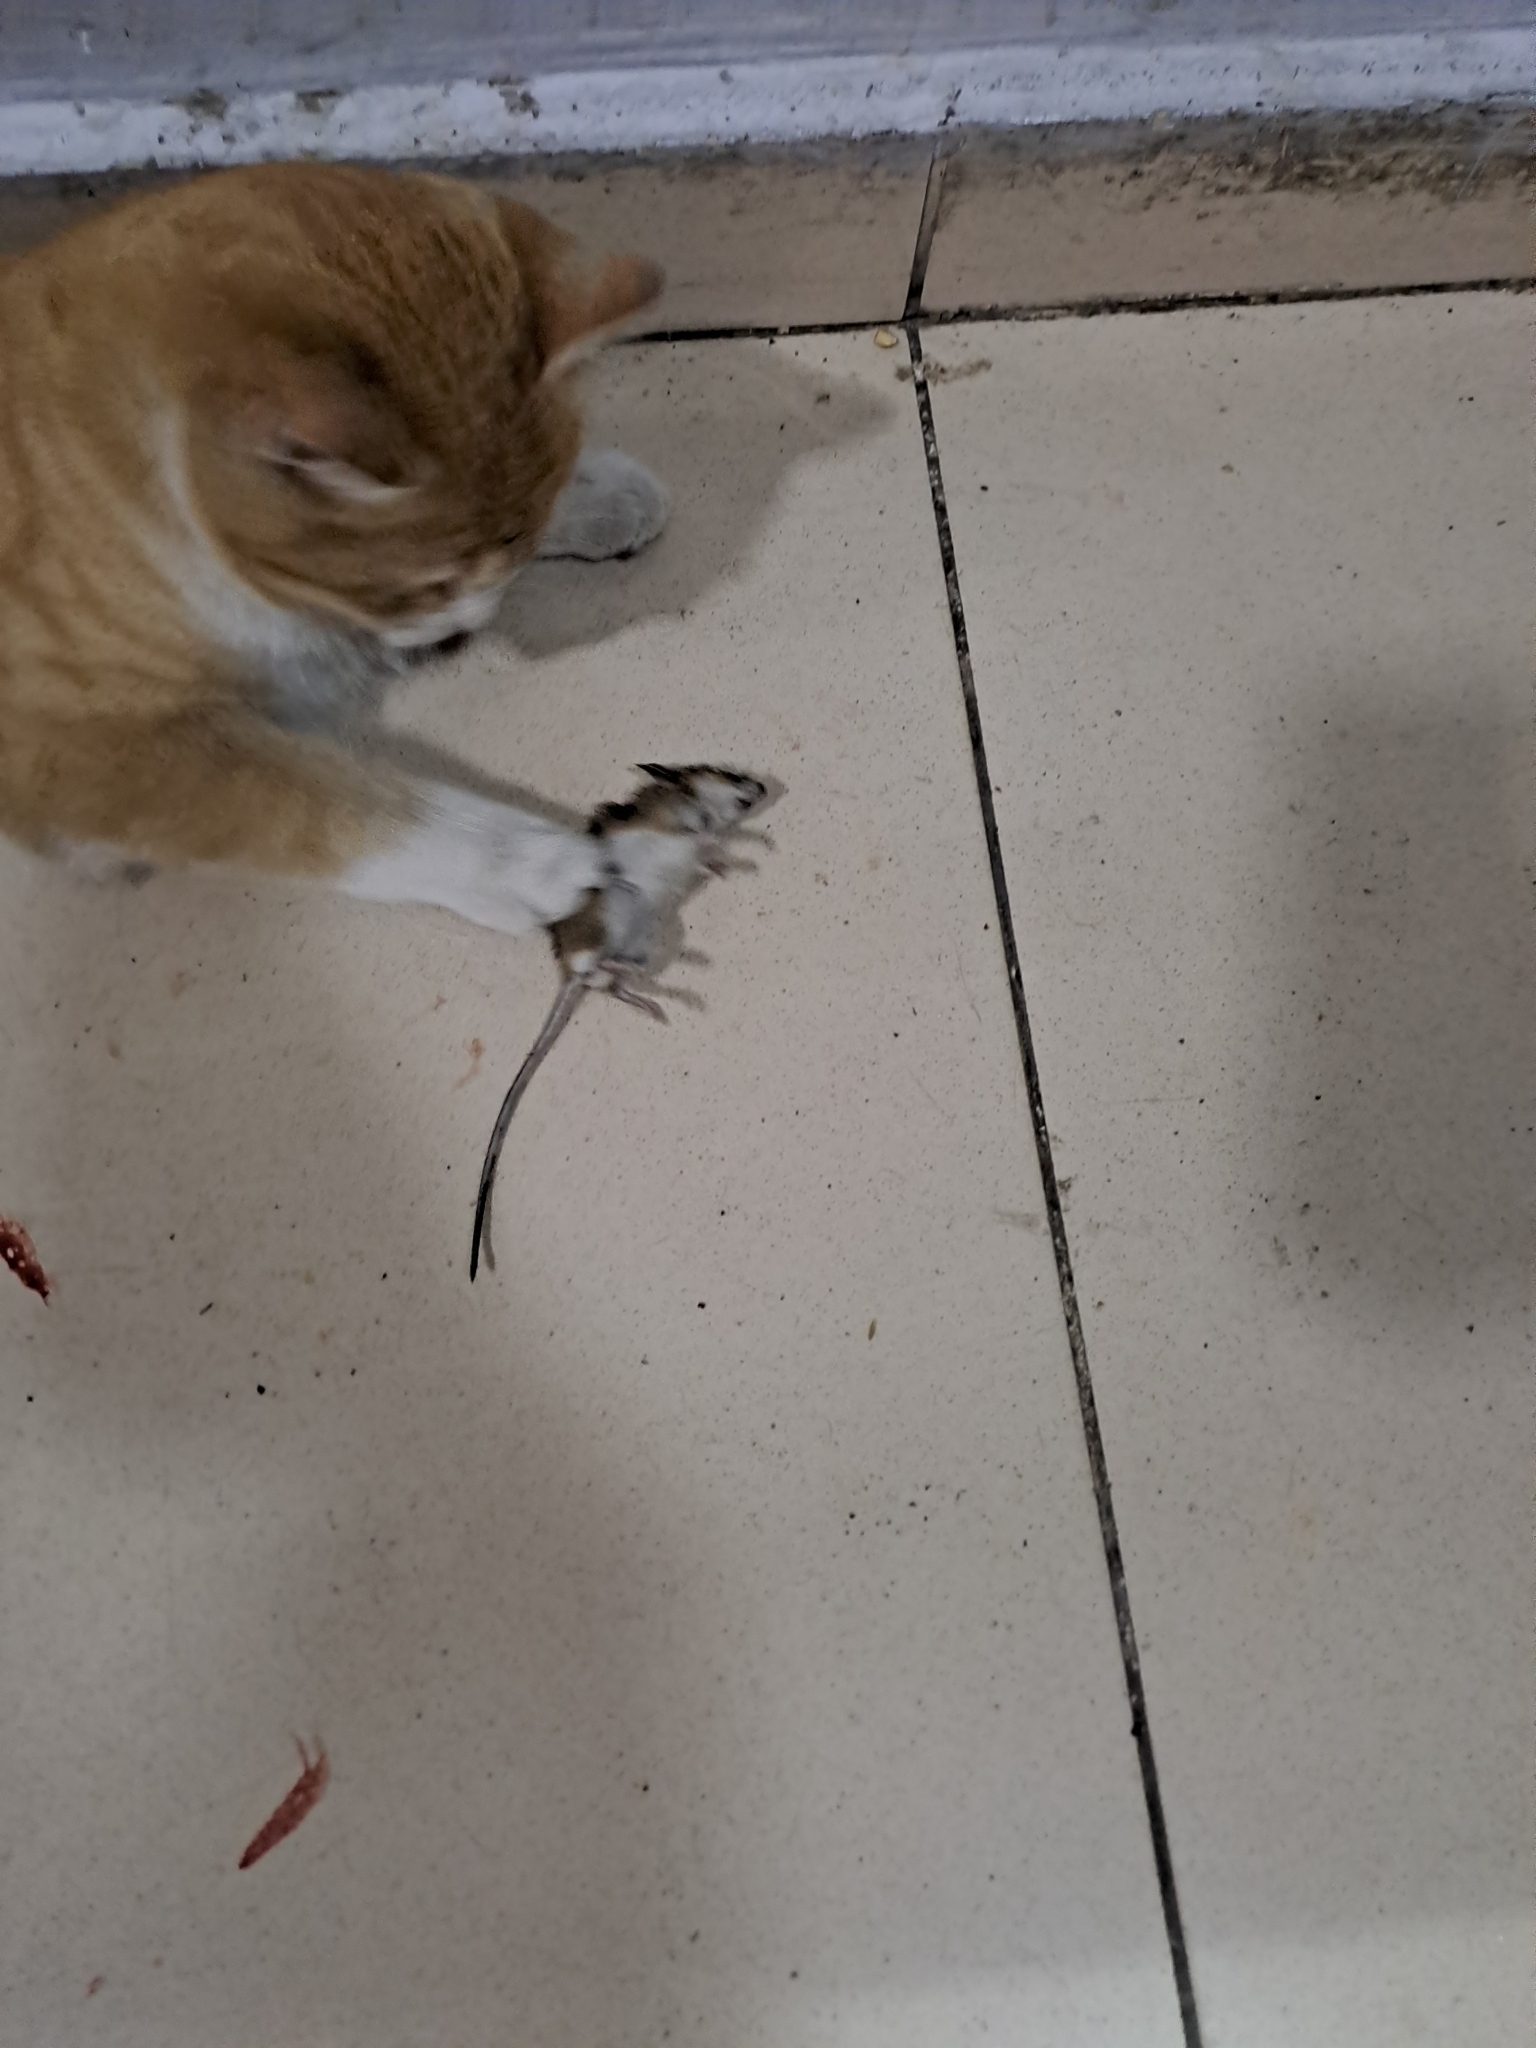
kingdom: Animalia
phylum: Chordata
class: Mammalia
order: Rodentia
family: Muridae
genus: Apodemus
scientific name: Apodemus agrarius
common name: Striped field mouse
